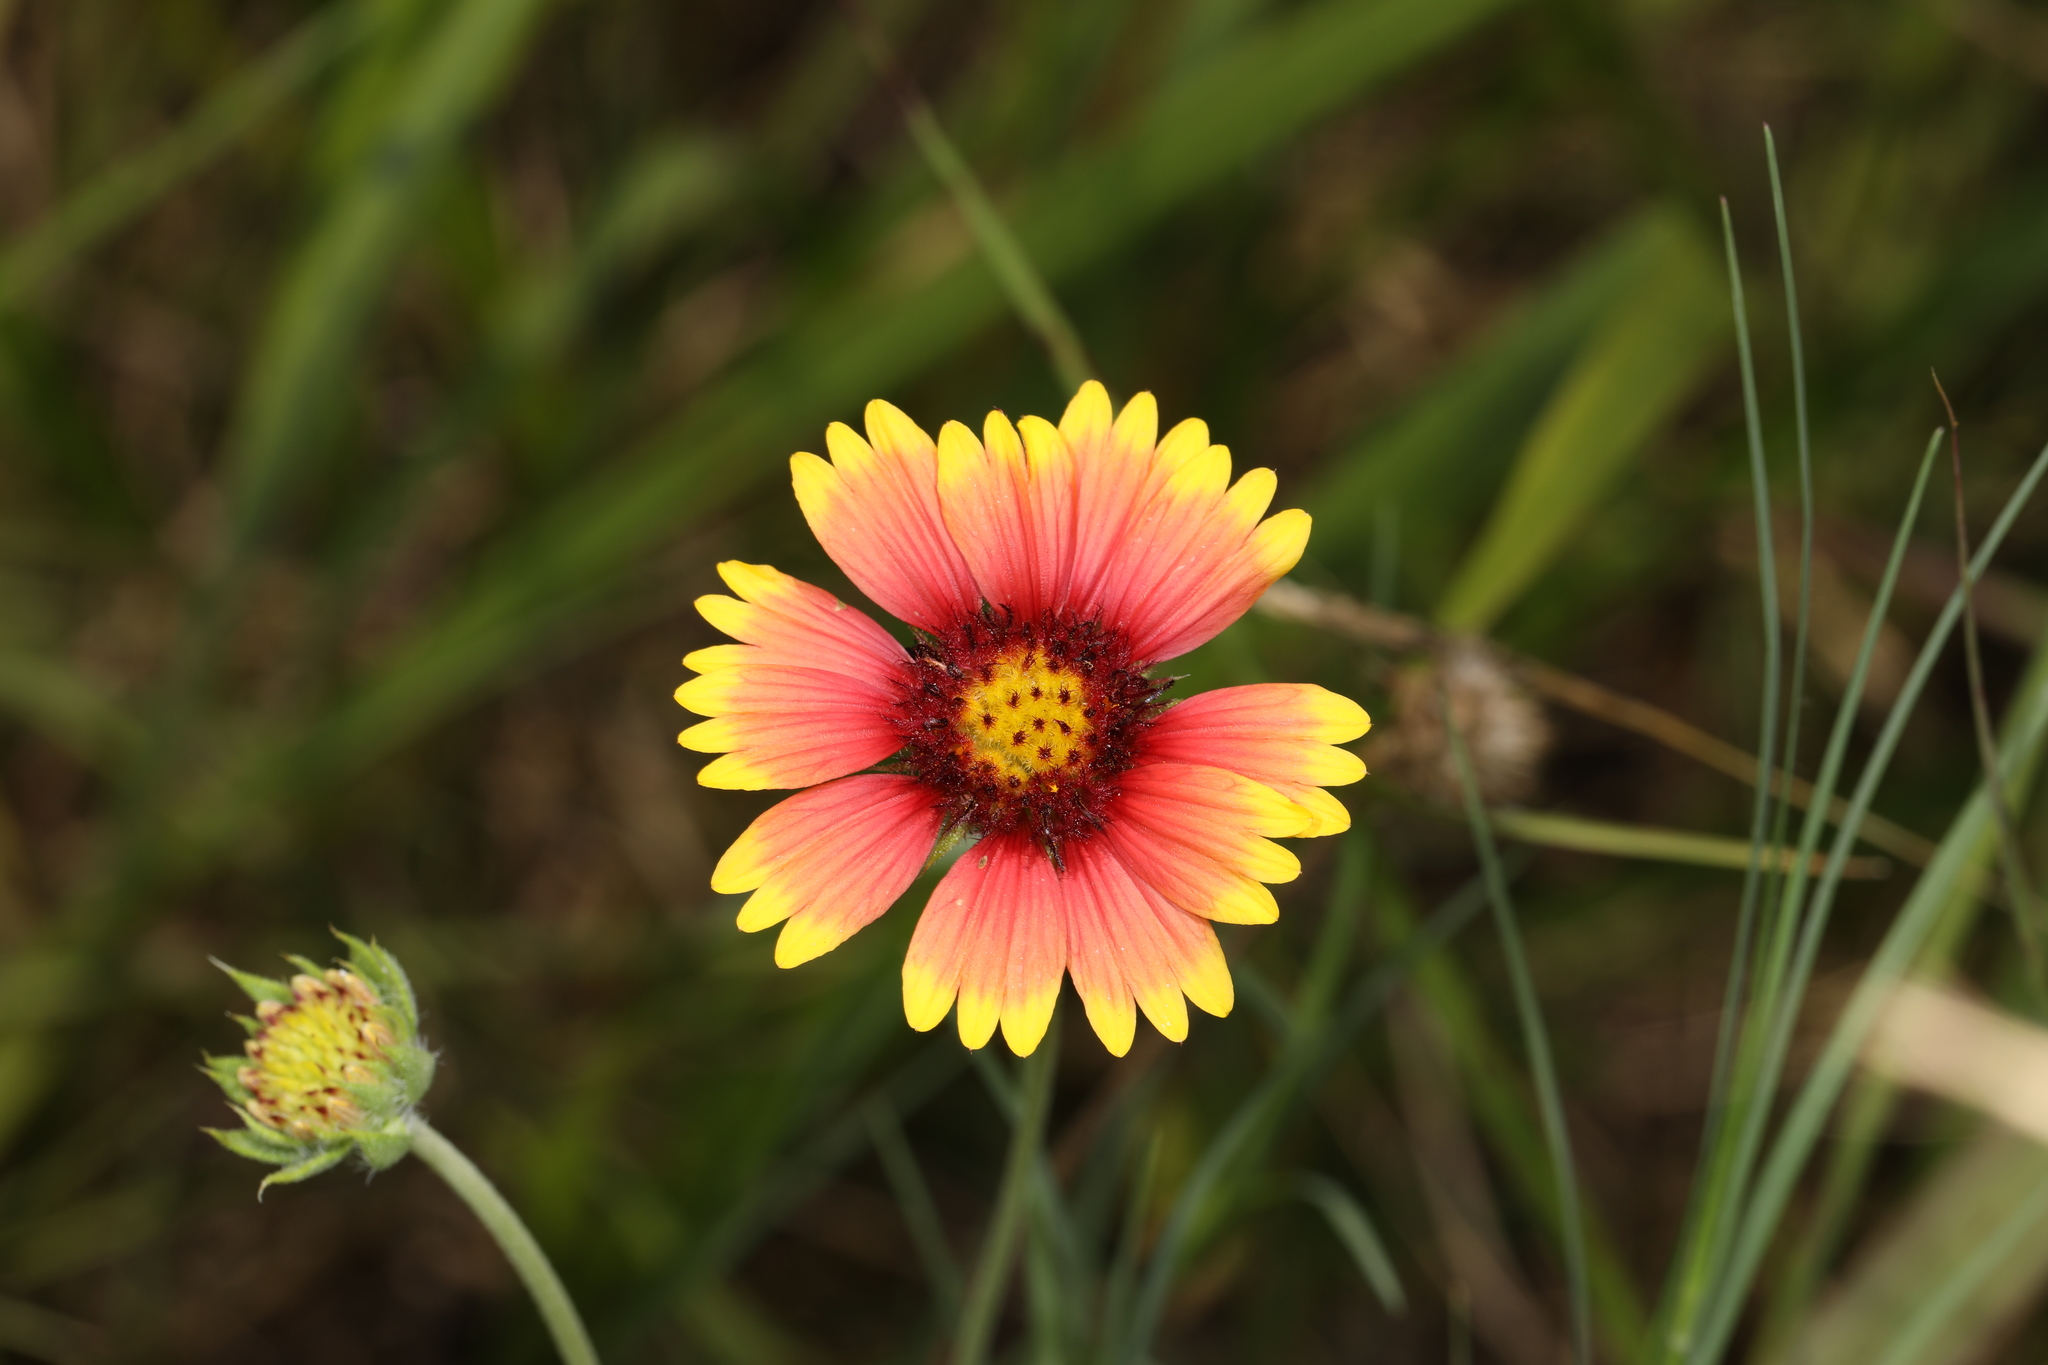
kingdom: Plantae
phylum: Tracheophyta
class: Magnoliopsida
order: Asterales
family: Asteraceae
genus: Gaillardia
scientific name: Gaillardia pulchella
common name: Firewheel
